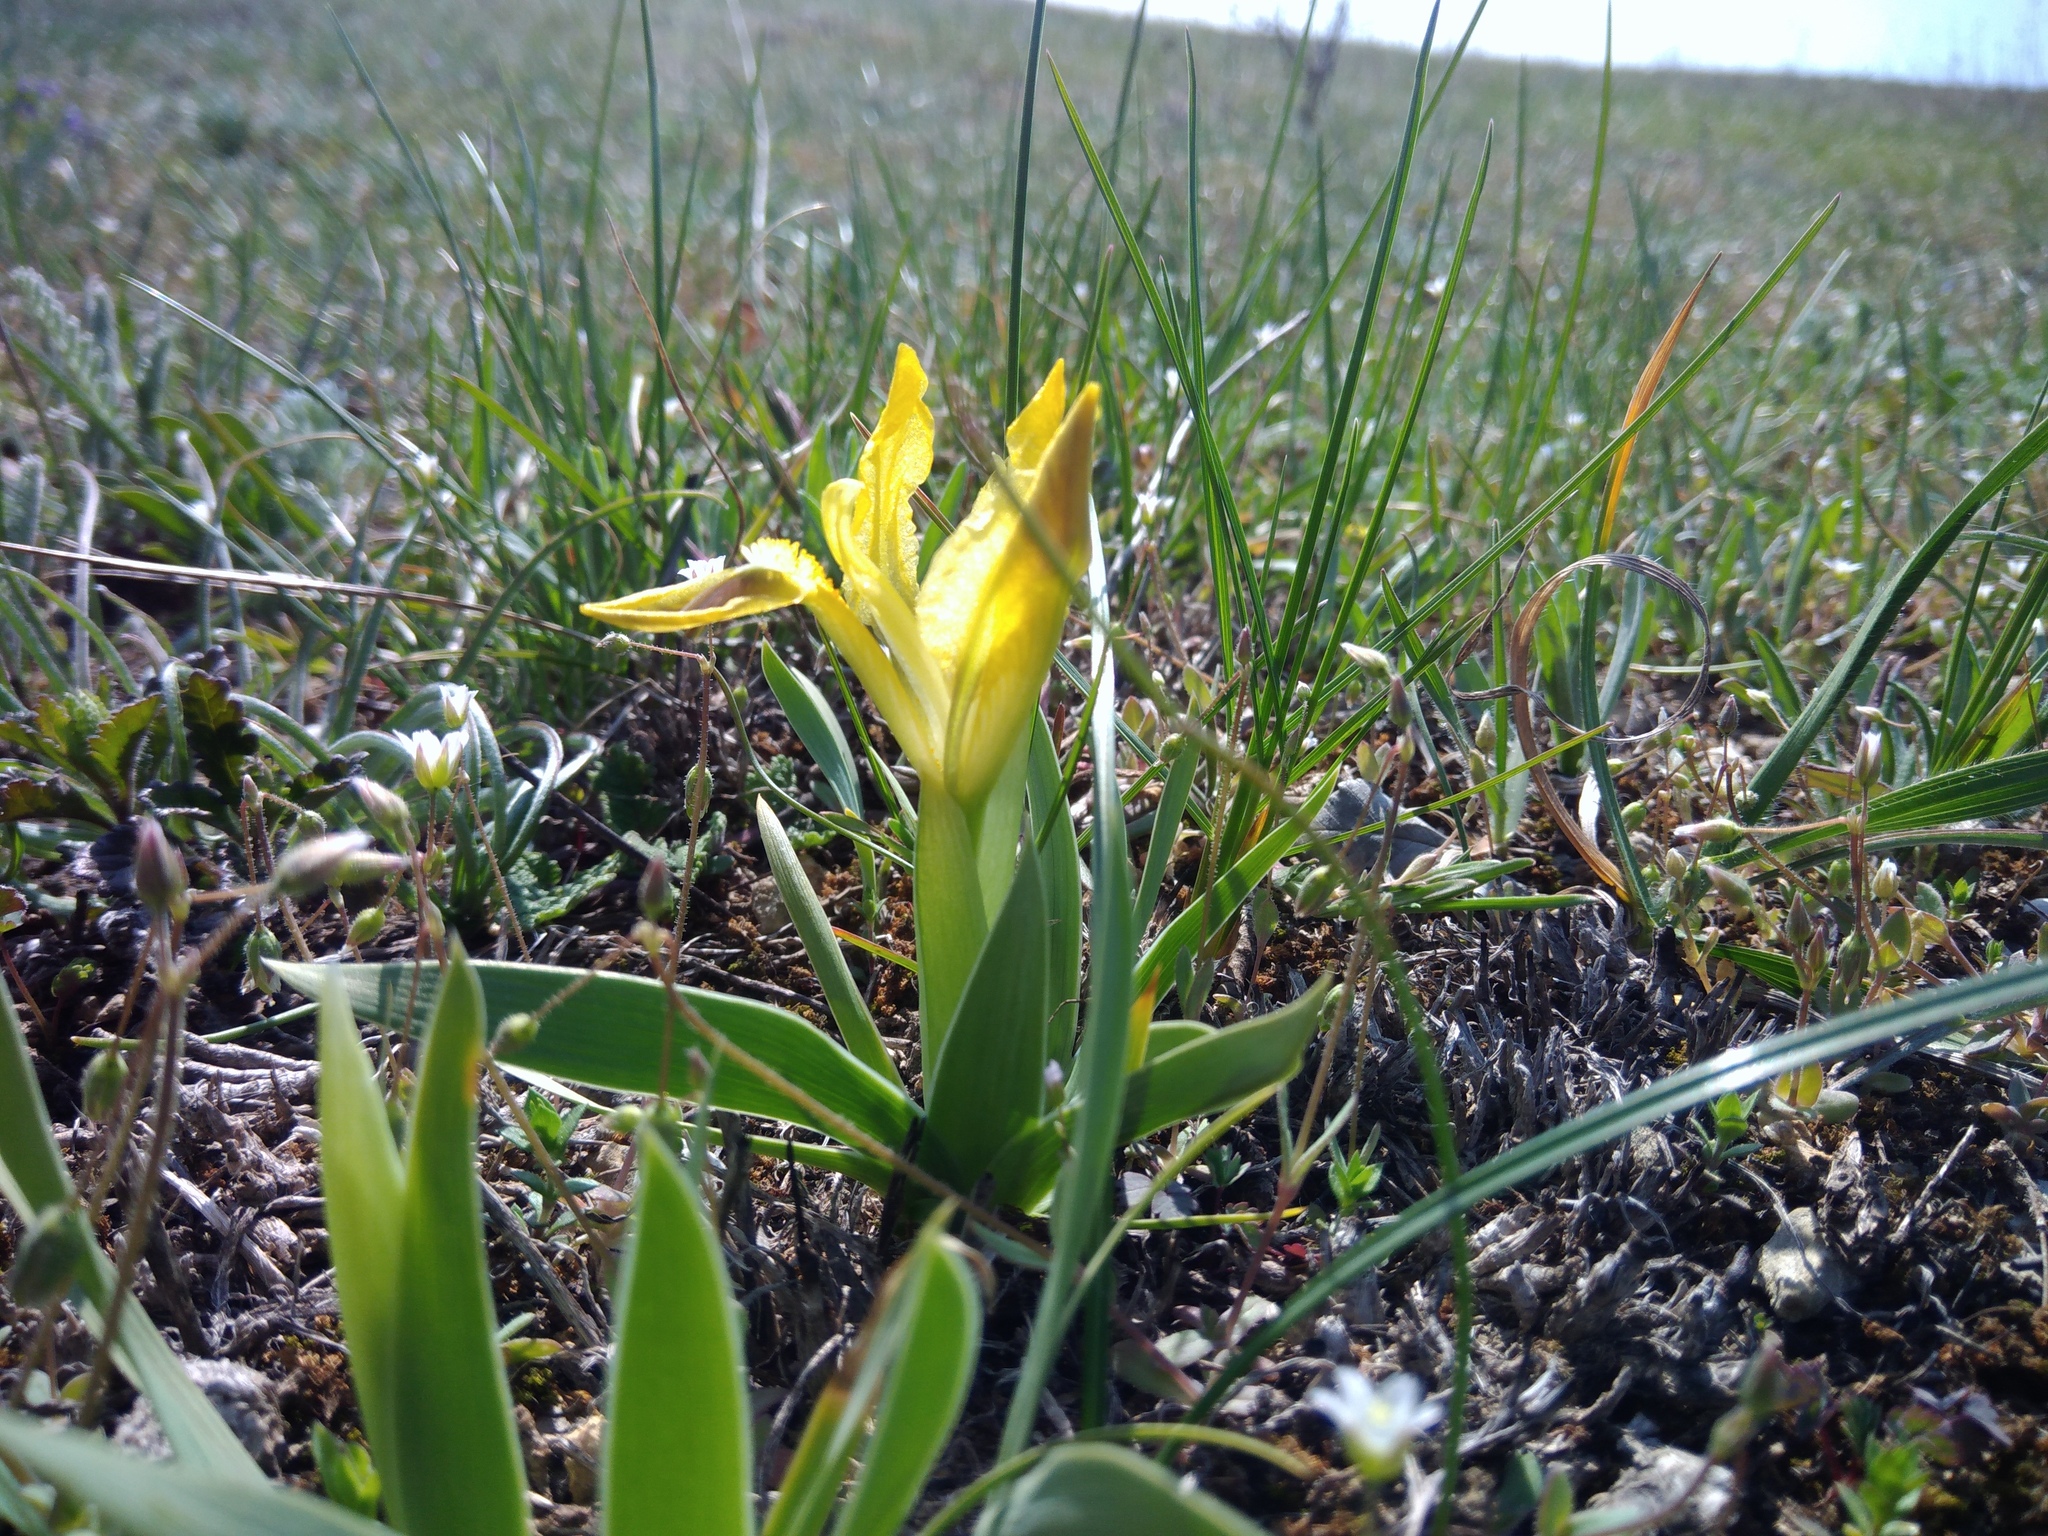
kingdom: Plantae
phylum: Tracheophyta
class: Liliopsida
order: Asparagales
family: Iridaceae
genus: Iris
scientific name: Iris pumila
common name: Dwarf iris
